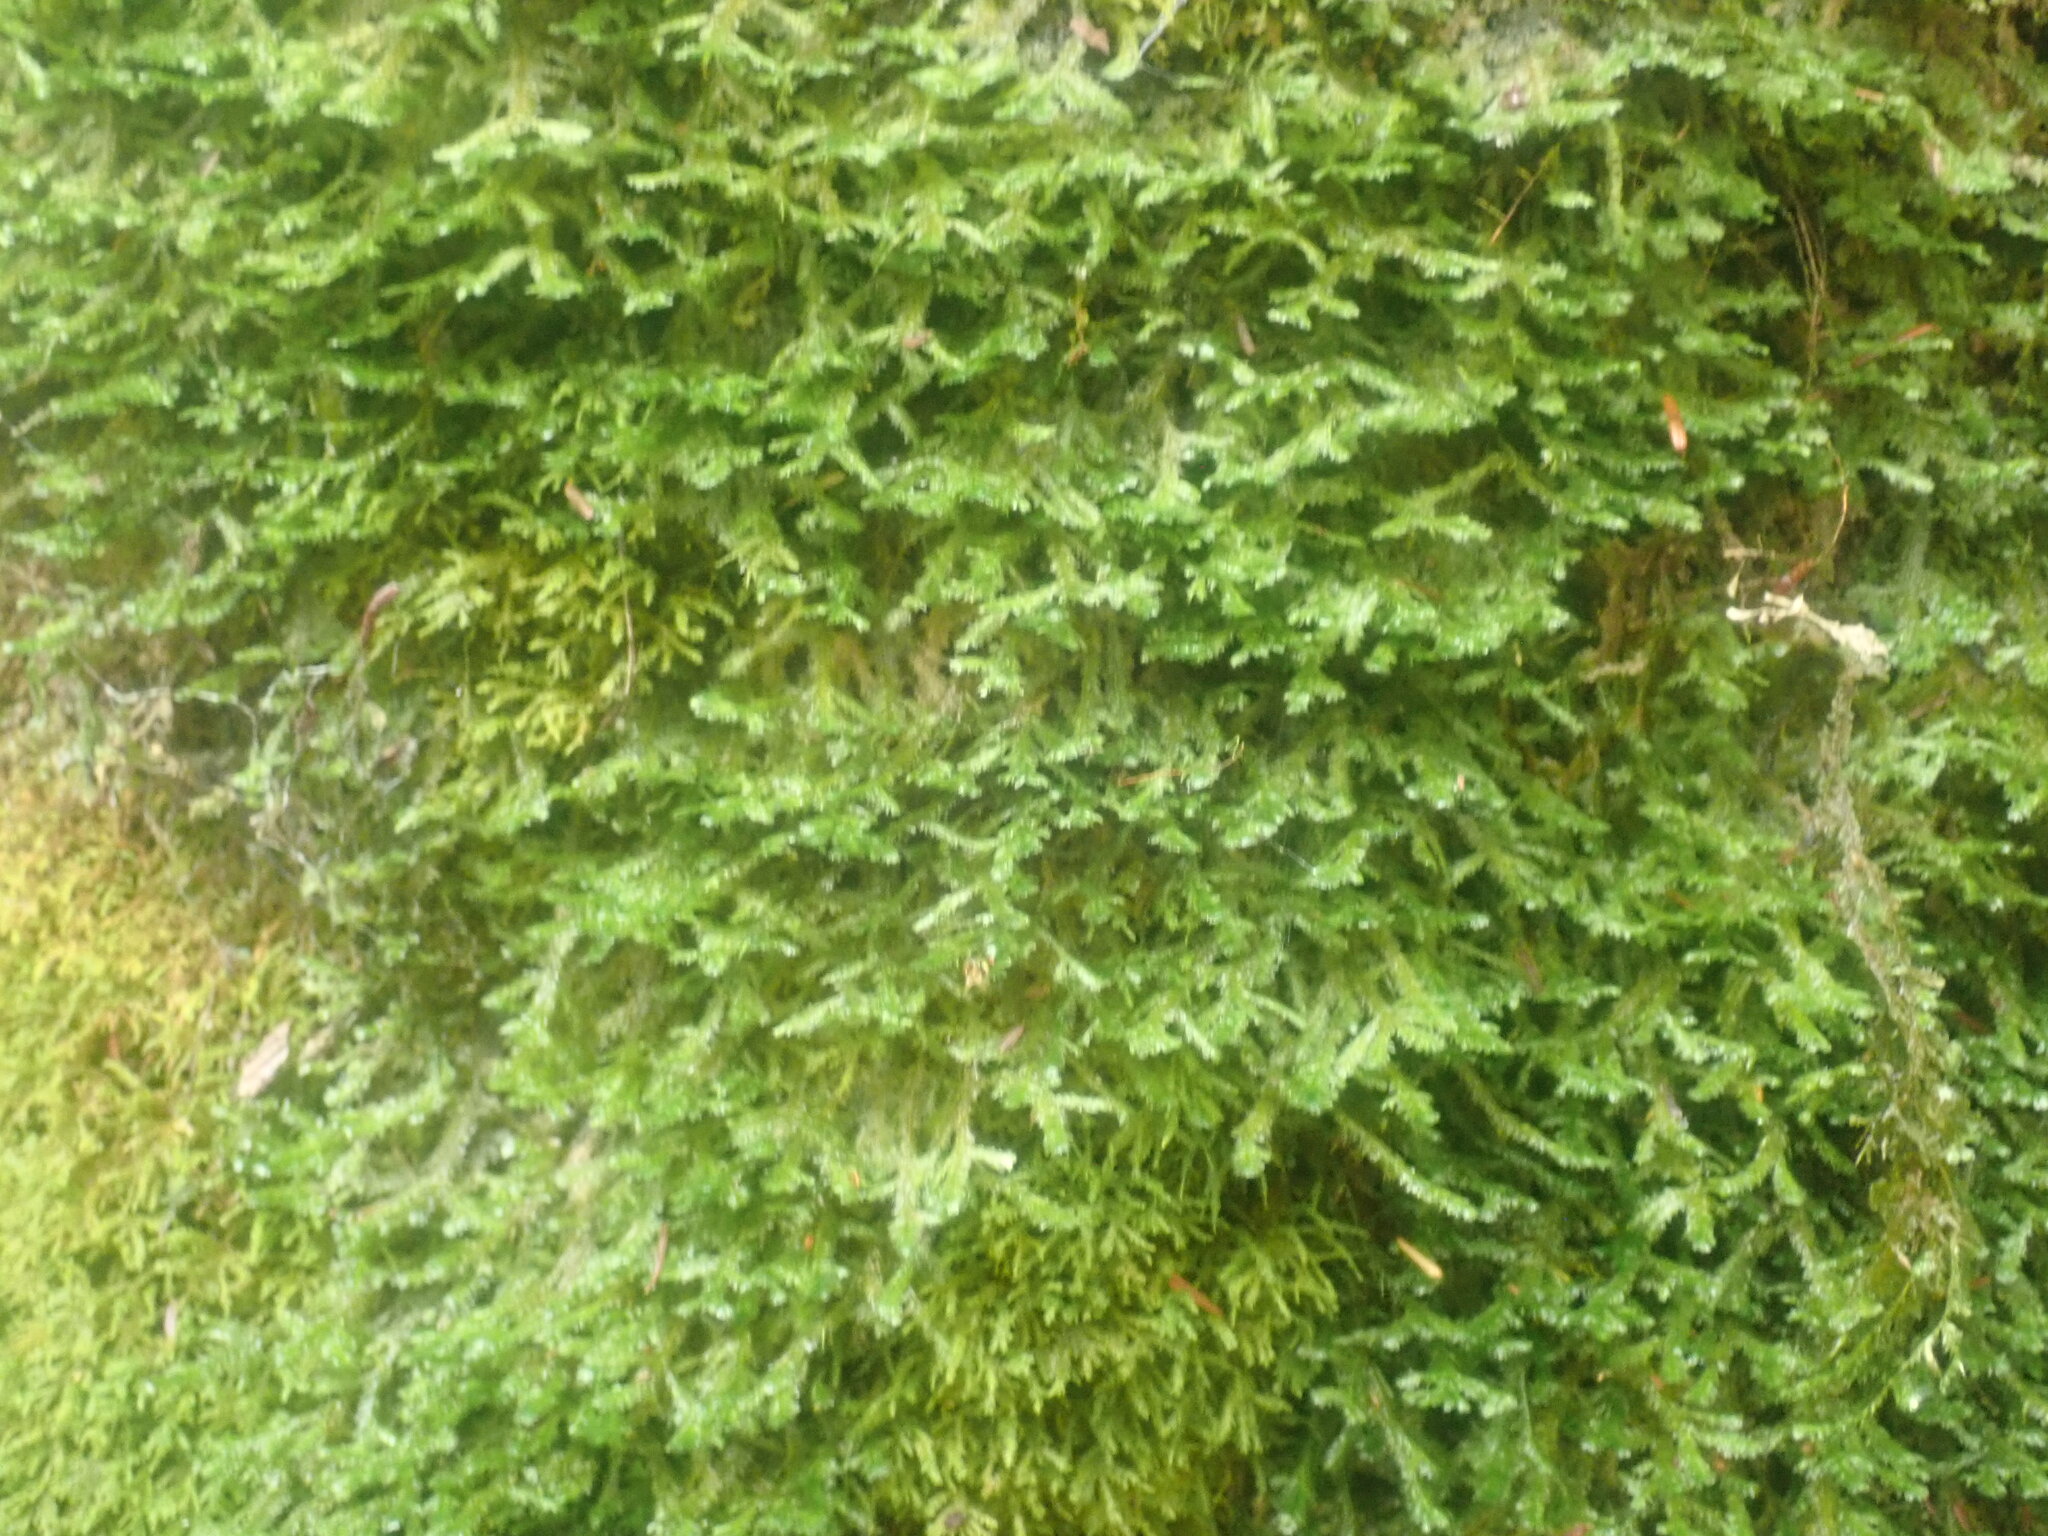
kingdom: Plantae
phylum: Bryophyta
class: Bryopsida
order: Hypnales
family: Neckeraceae
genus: Neckera
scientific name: Neckera pennata
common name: Feathery neckera
